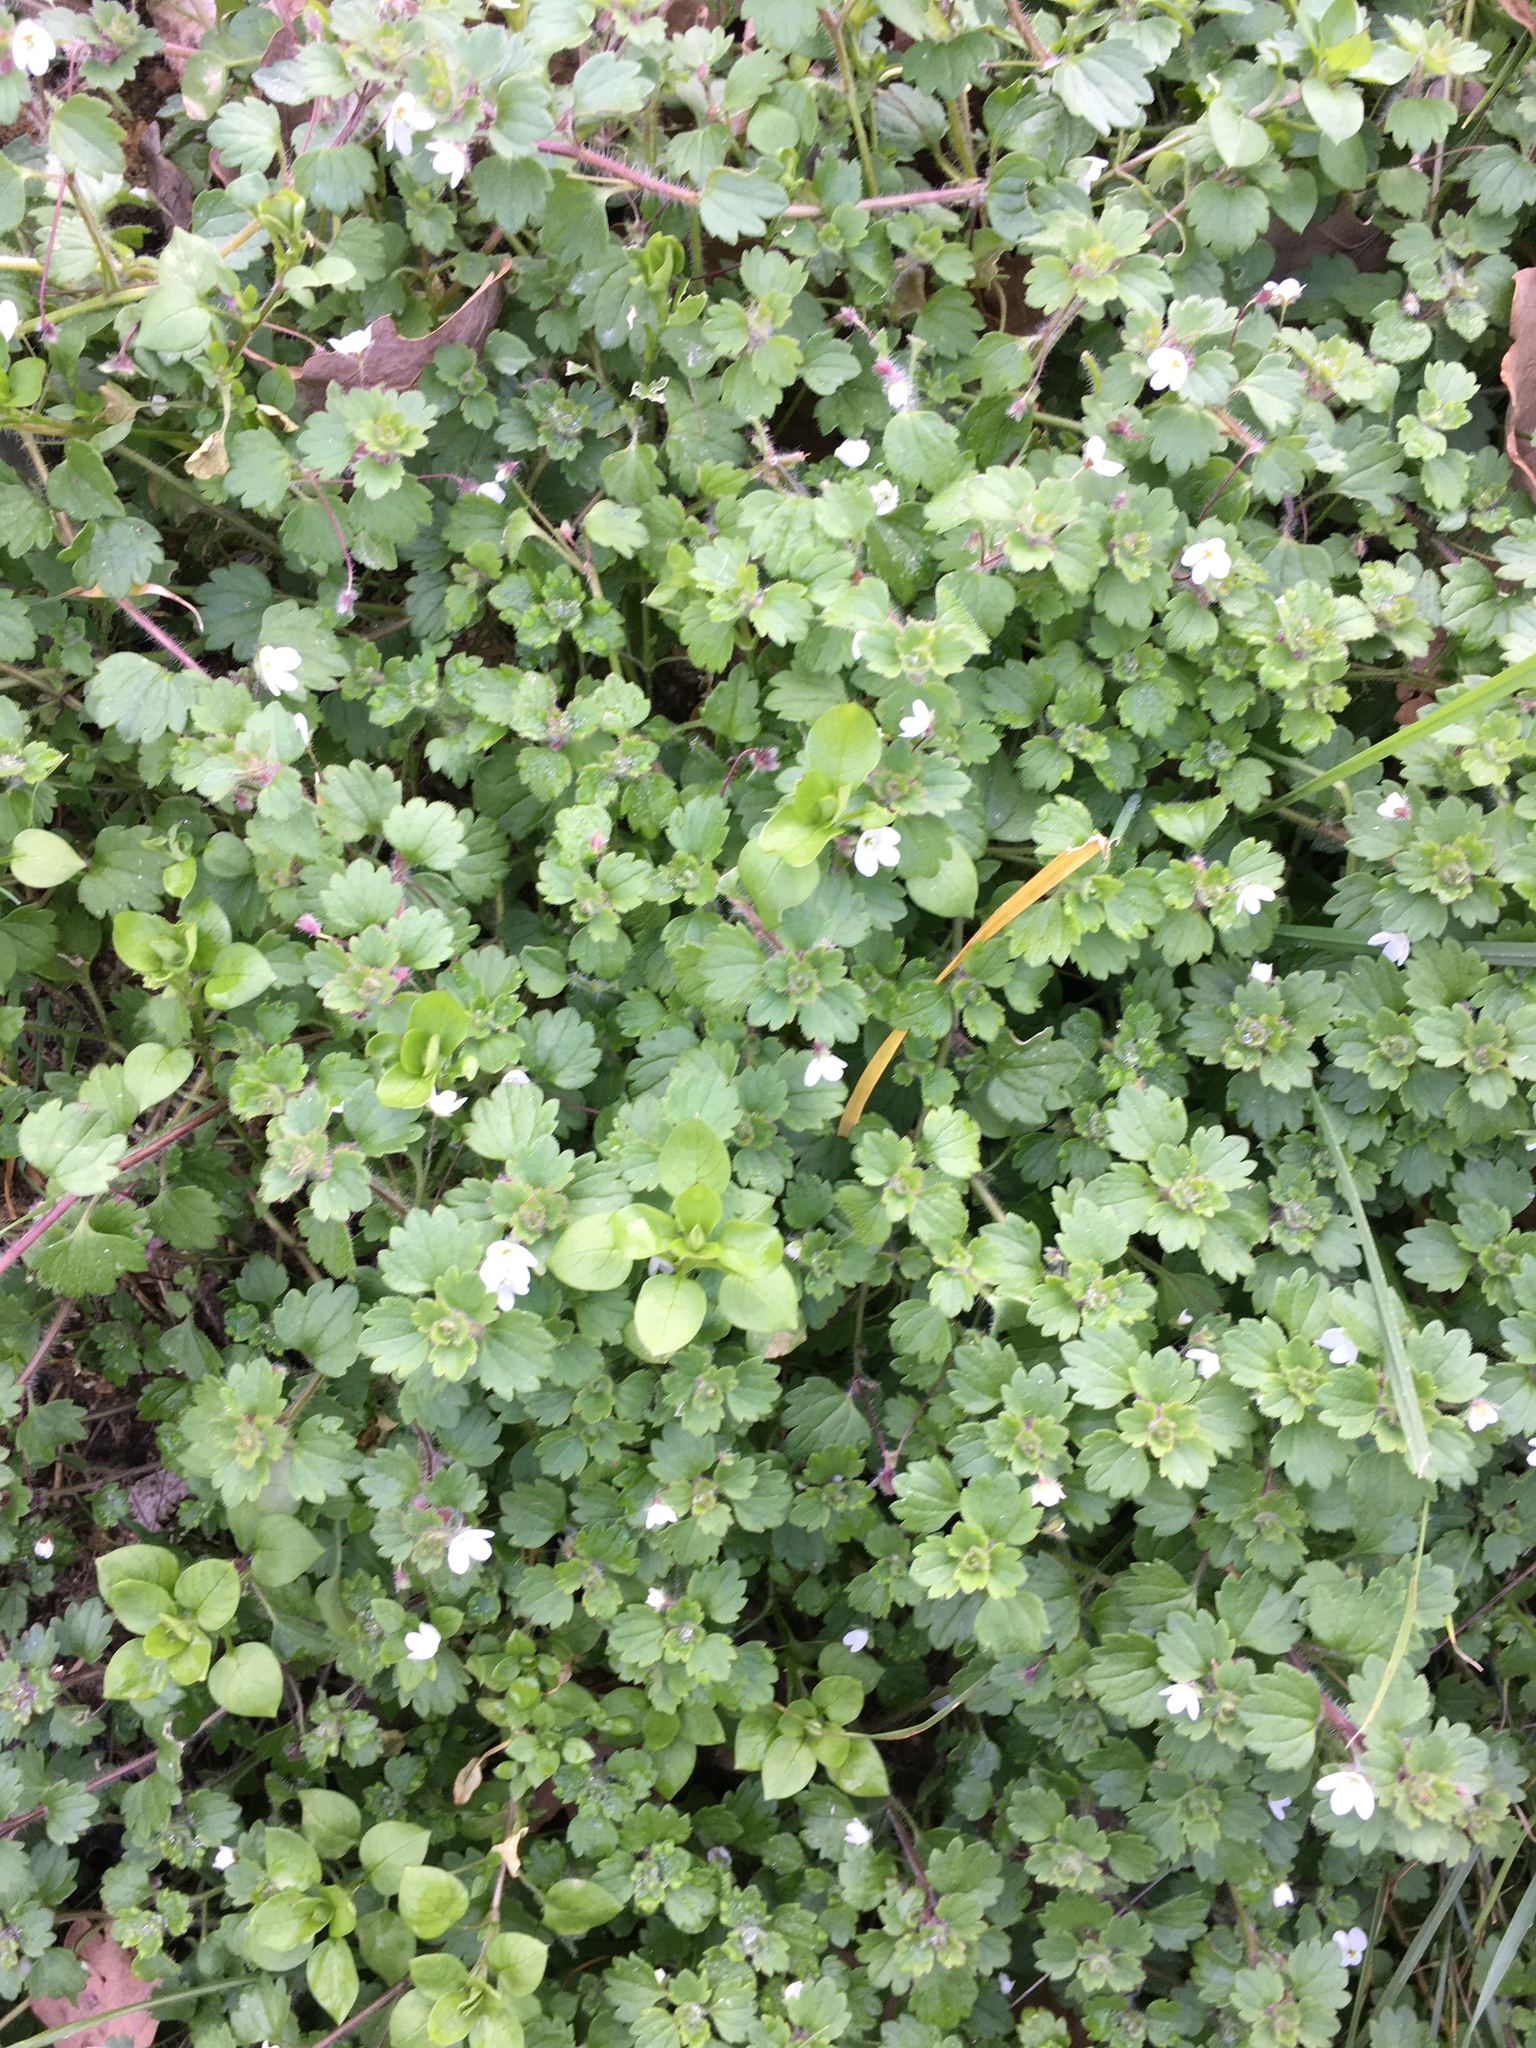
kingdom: Plantae
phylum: Tracheophyta
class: Magnoliopsida
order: Lamiales
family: Plantaginaceae
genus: Veronica
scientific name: Veronica cymbalaria
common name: Pale speedwell
